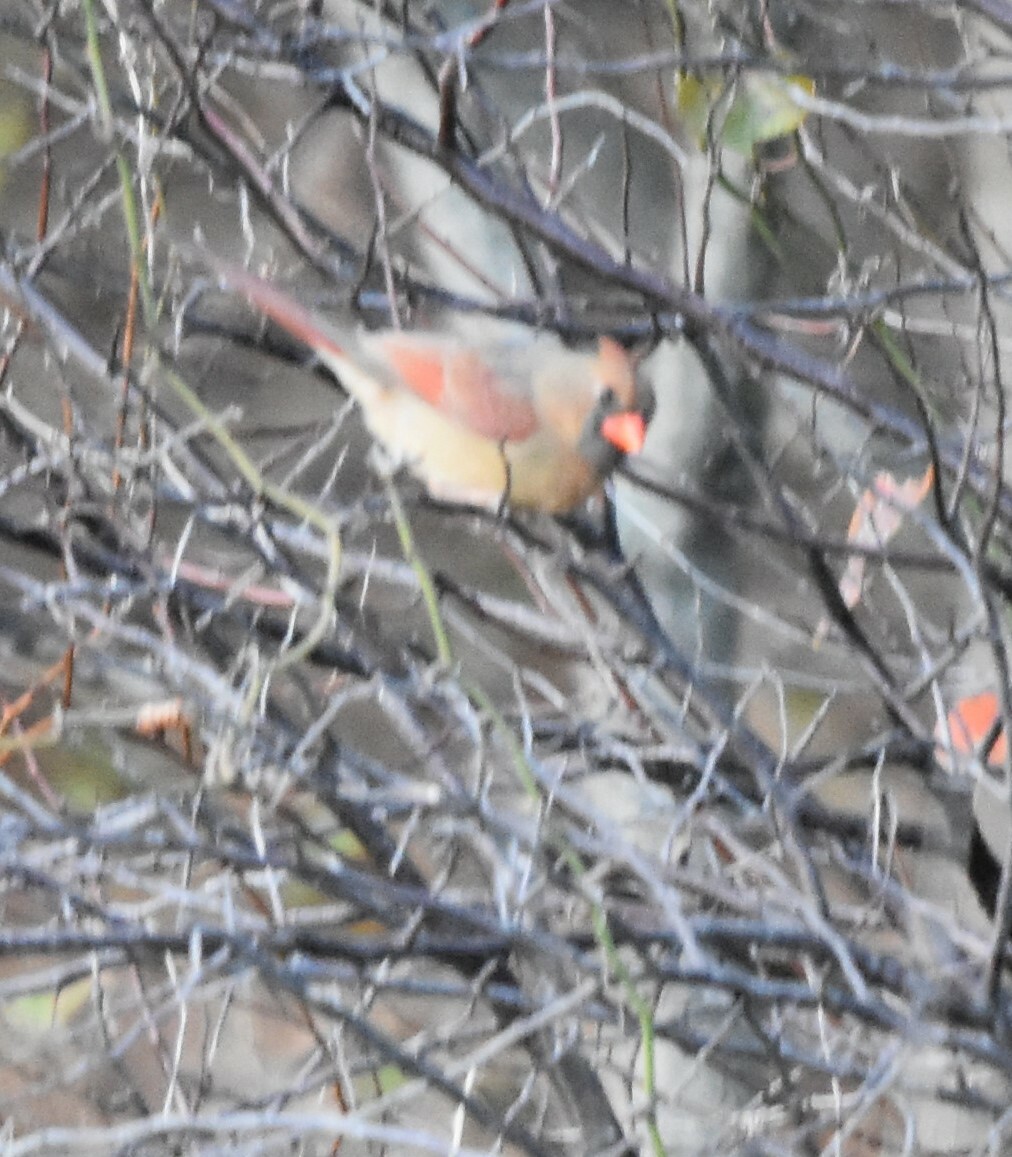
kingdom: Animalia
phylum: Chordata
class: Aves
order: Passeriformes
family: Cardinalidae
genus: Cardinalis
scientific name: Cardinalis cardinalis
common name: Northern cardinal
